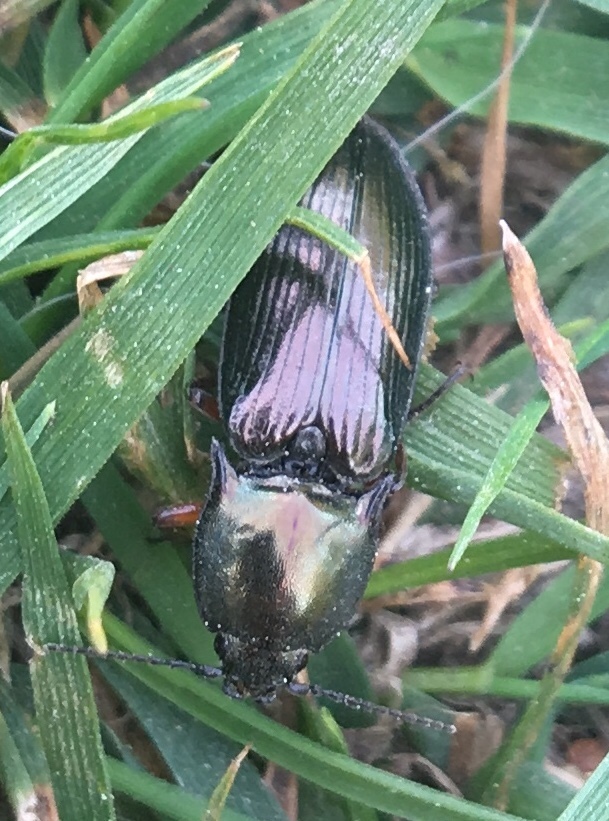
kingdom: Animalia
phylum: Arthropoda
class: Insecta
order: Coleoptera
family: Elateridae
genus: Selatosomus
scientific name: Selatosomus aeneus
